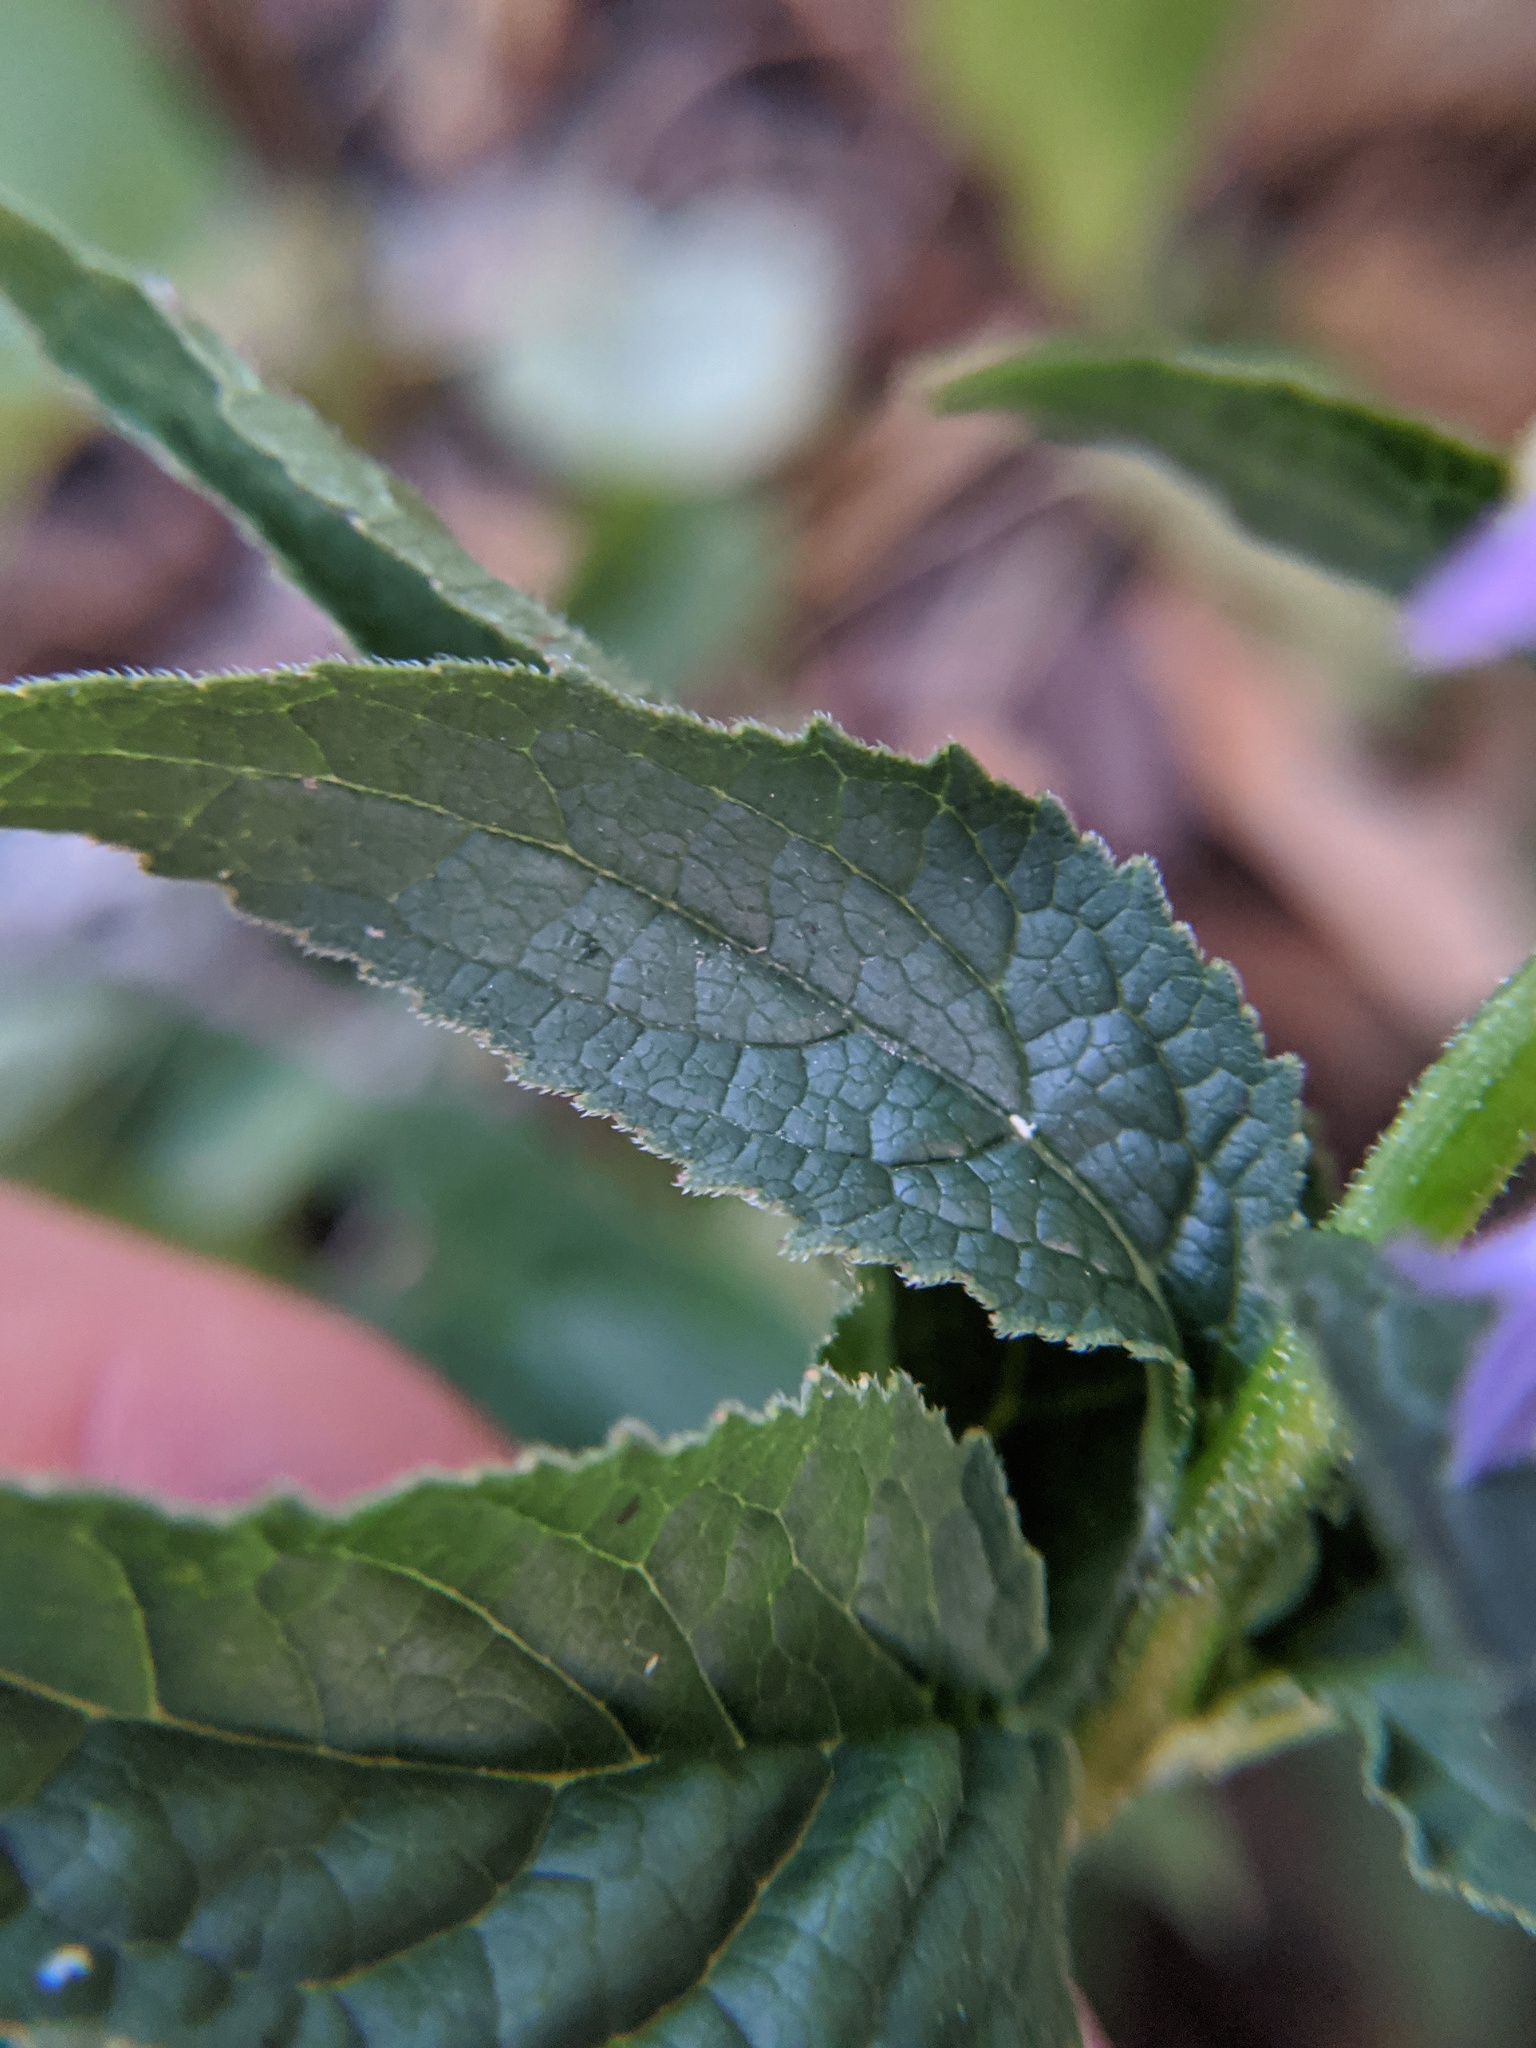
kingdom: Plantae
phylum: Tracheophyta
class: Magnoliopsida
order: Asterales
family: Campanulaceae
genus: Campanula
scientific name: Campanula rapunculoides
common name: Creeping bellflower
